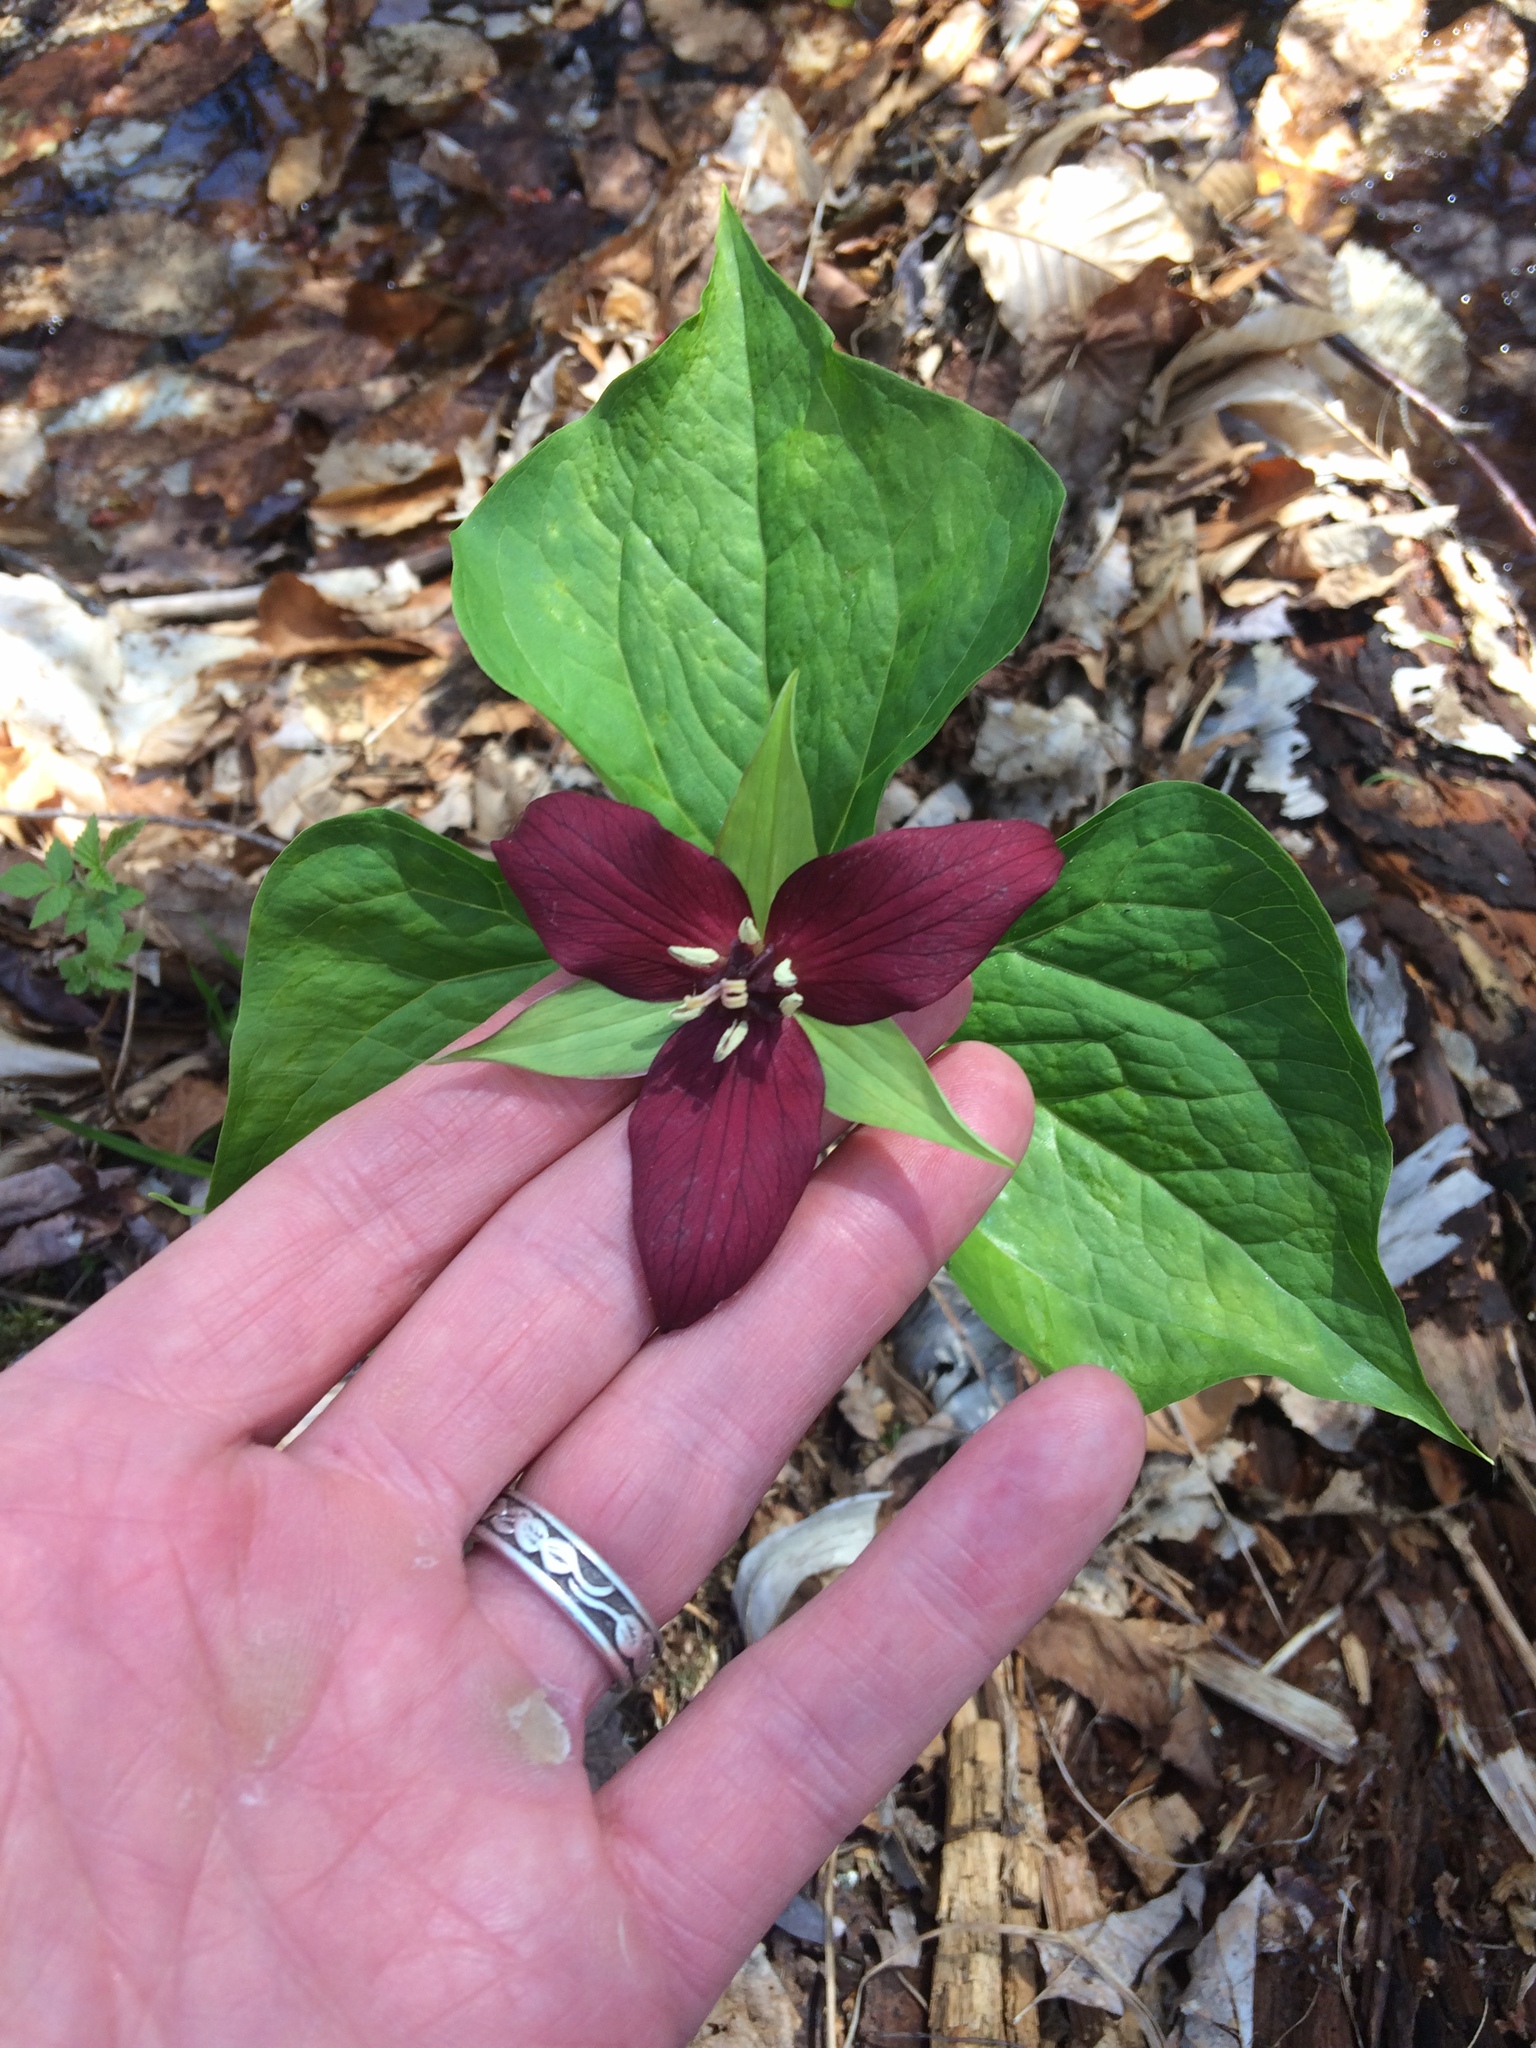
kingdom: Plantae
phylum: Tracheophyta
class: Liliopsida
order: Liliales
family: Melanthiaceae
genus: Trillium
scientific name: Trillium erectum
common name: Purple trillium
